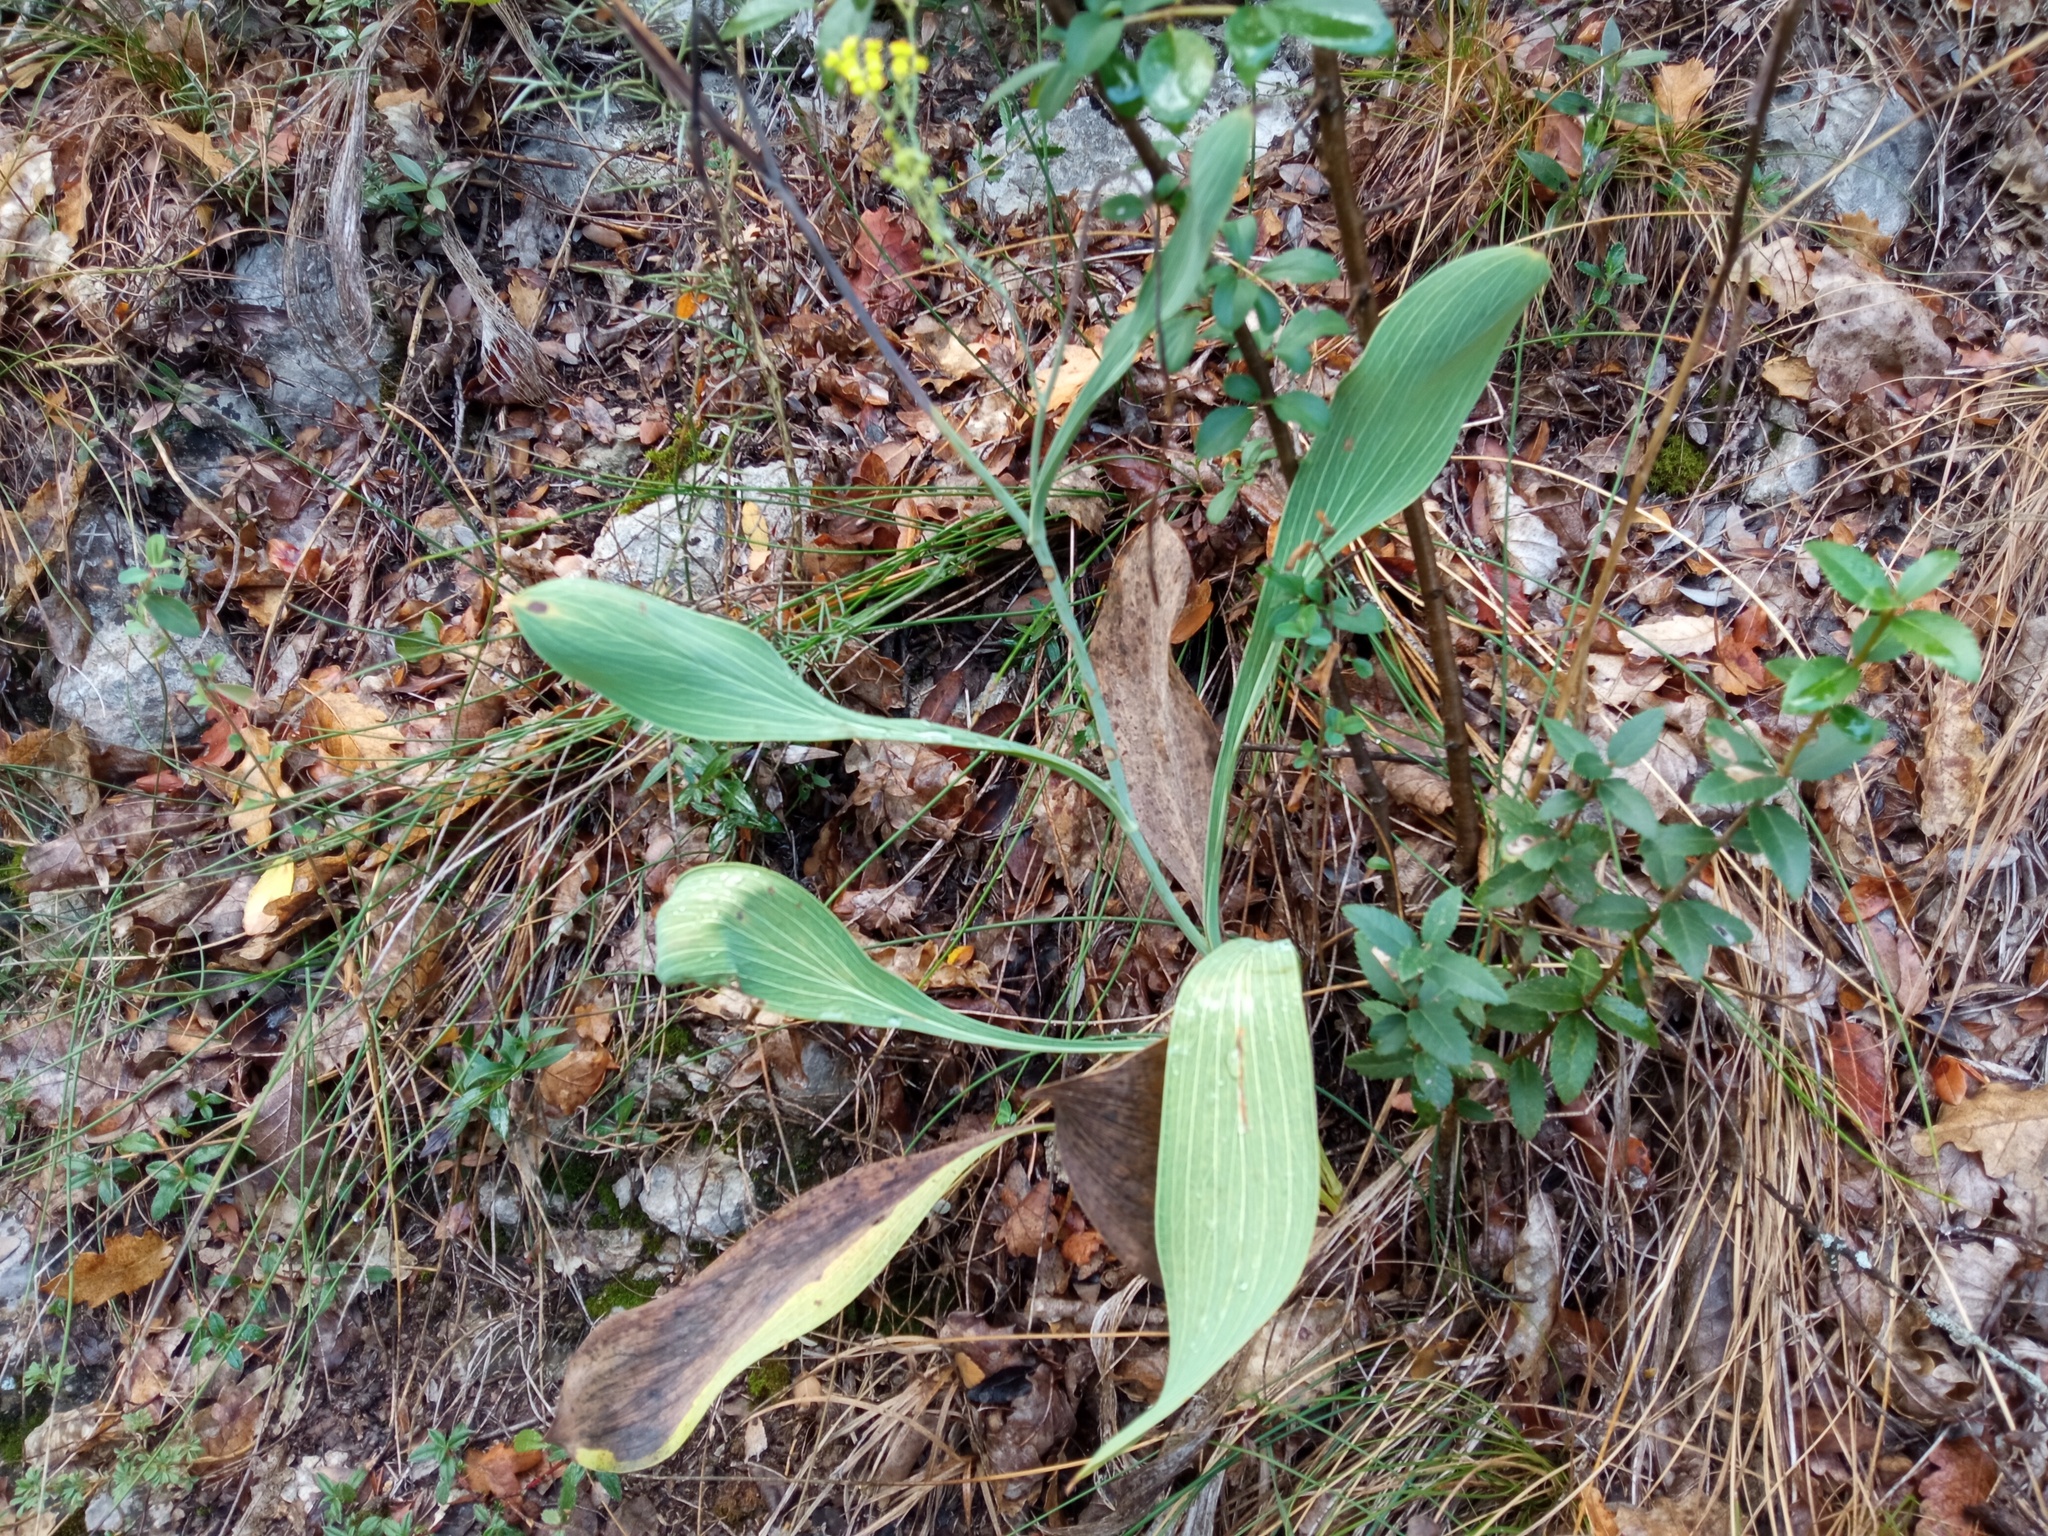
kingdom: Plantae
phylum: Tracheophyta
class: Magnoliopsida
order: Apiales
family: Apiaceae
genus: Bupleurum
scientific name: Bupleurum rigidum
